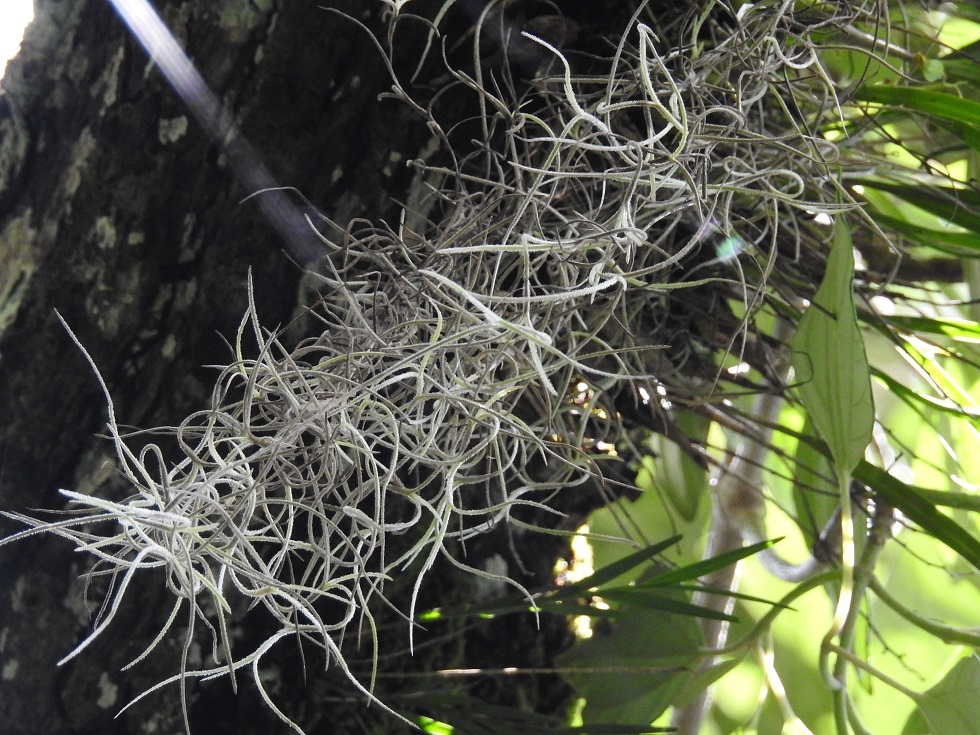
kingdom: Plantae
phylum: Tracheophyta
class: Liliopsida
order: Poales
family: Bromeliaceae
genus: Tillandsia
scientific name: Tillandsia usneoides
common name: Spanish moss
